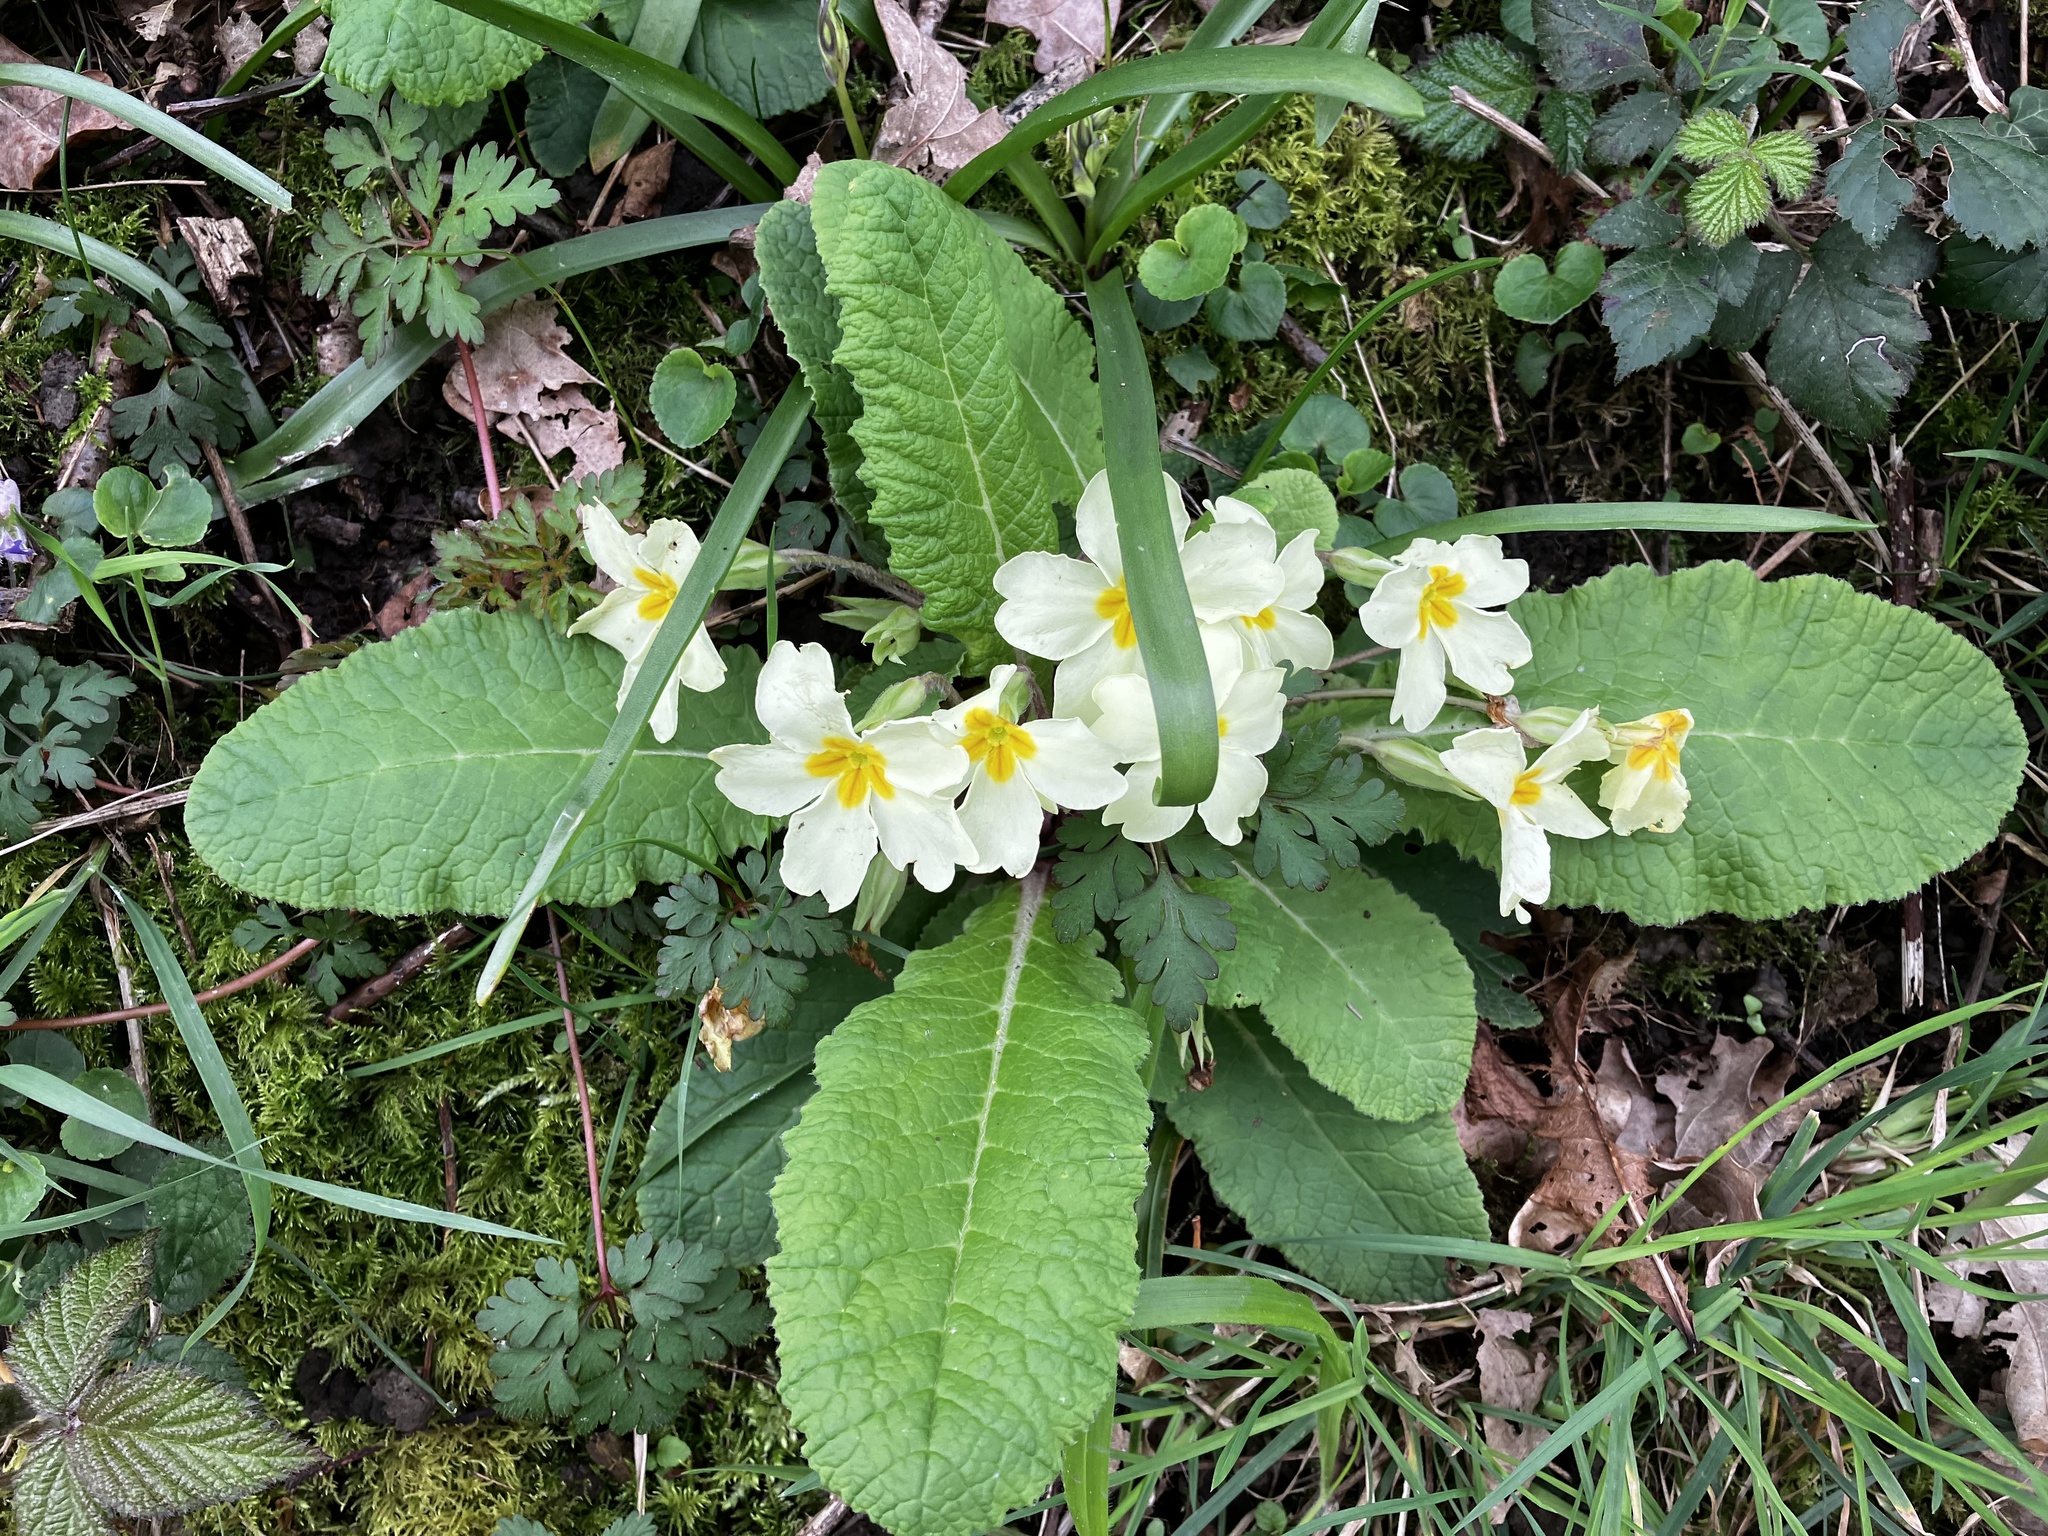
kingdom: Plantae
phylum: Tracheophyta
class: Magnoliopsida
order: Ericales
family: Primulaceae
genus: Primula
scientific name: Primula vulgaris
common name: Primrose
